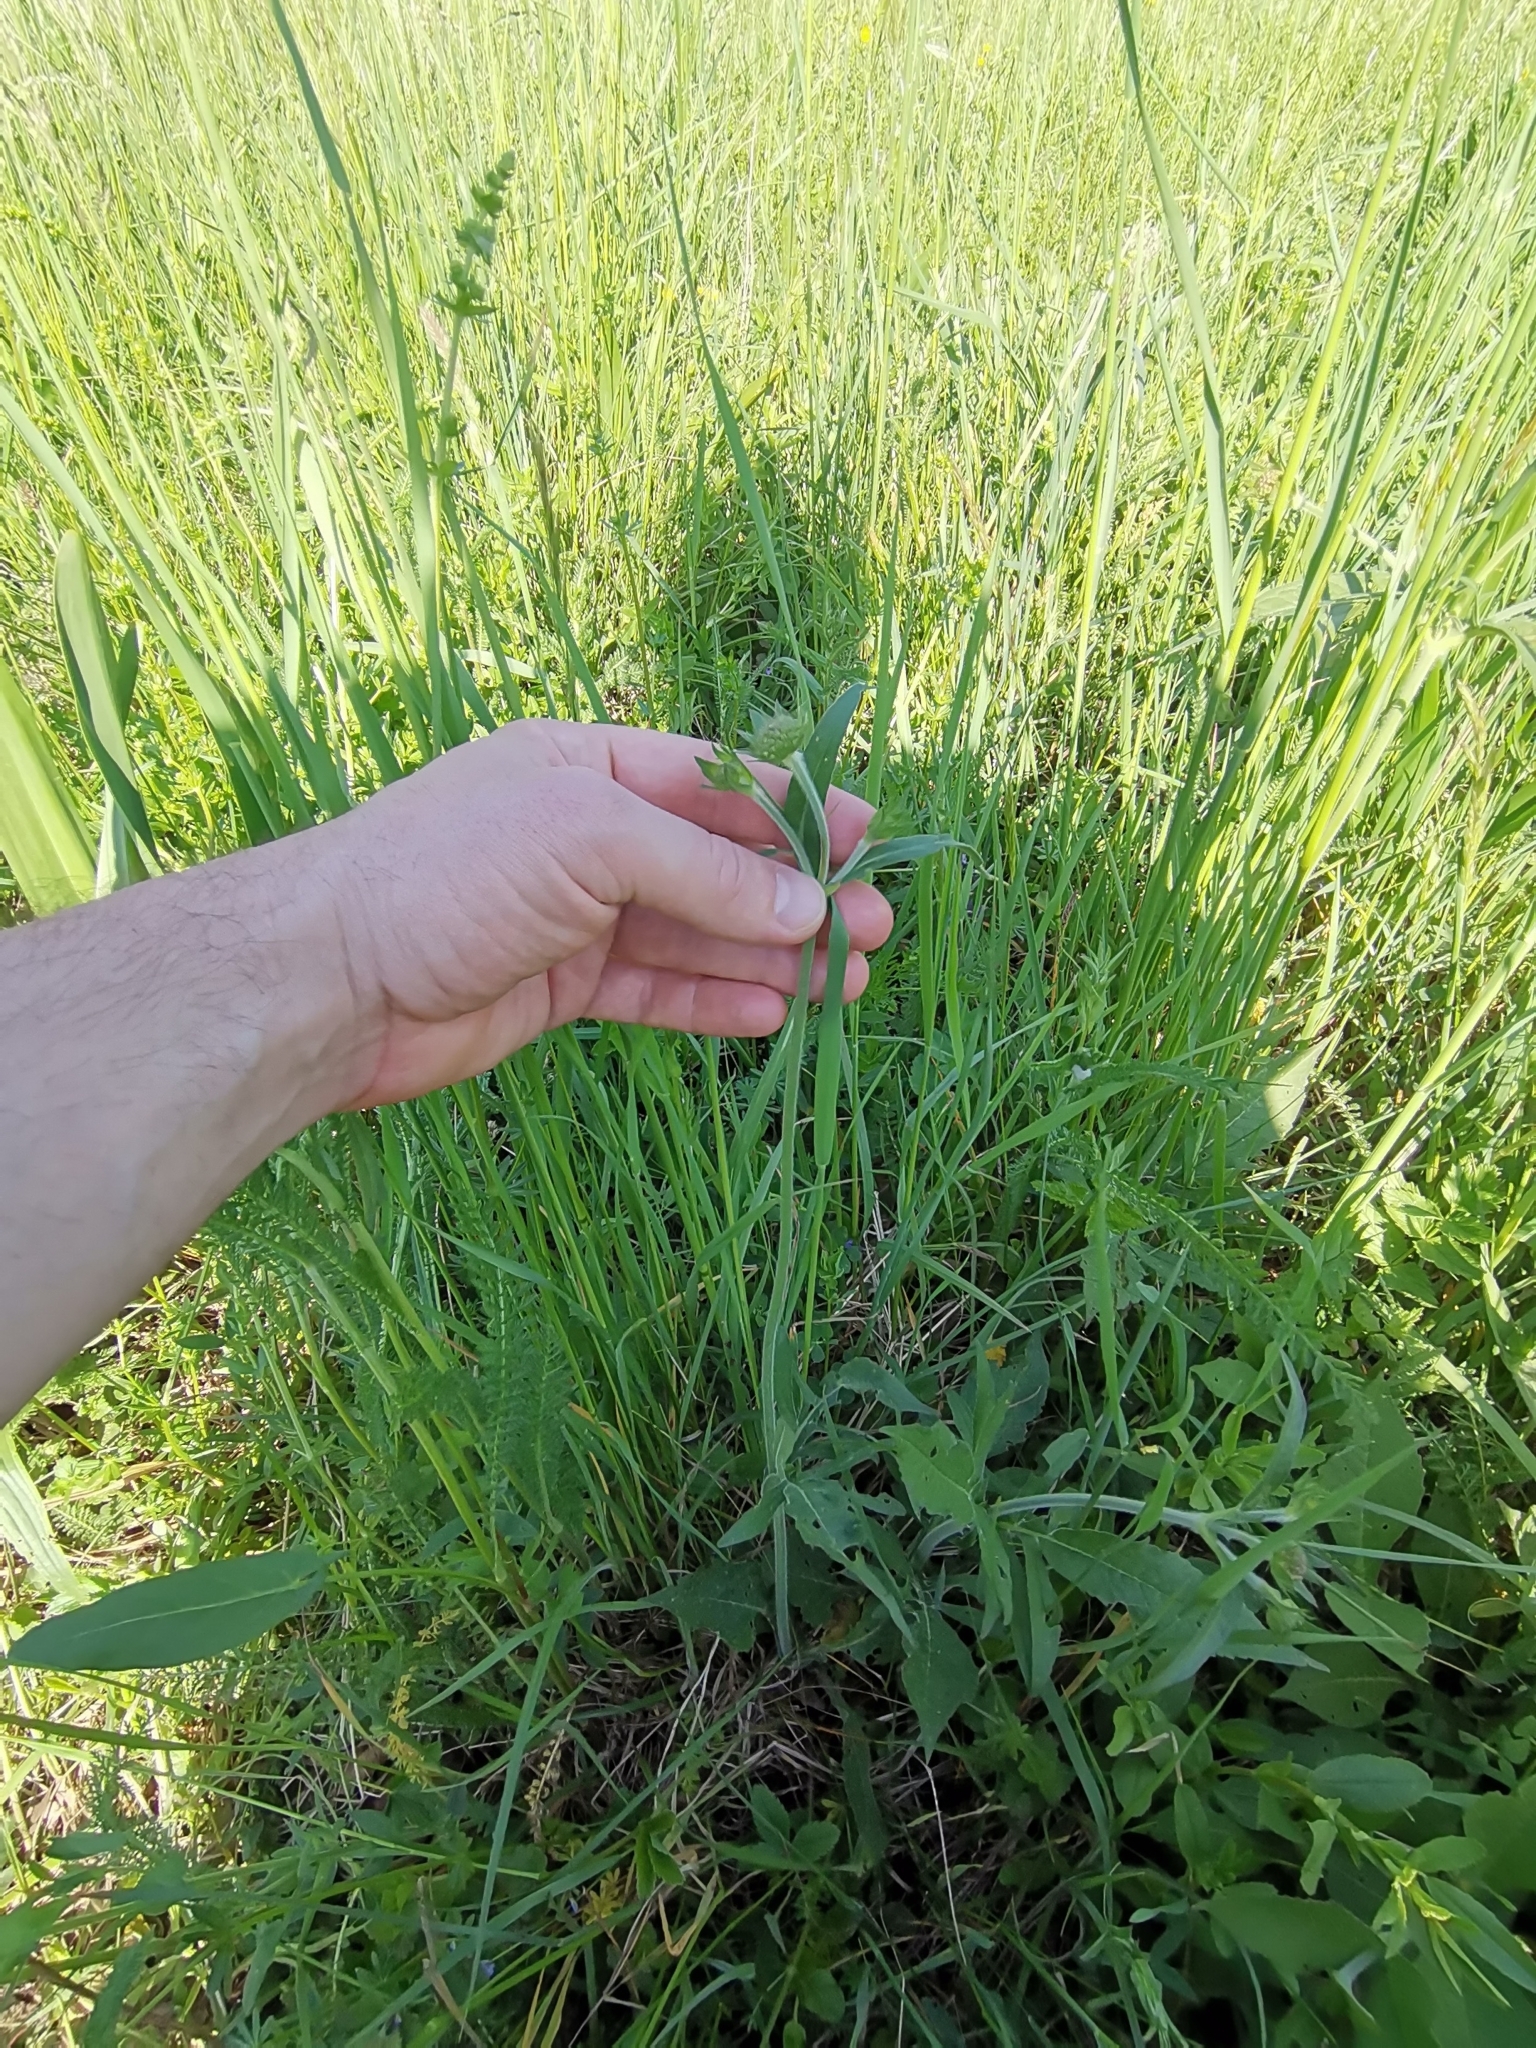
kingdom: Plantae
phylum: Tracheophyta
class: Magnoliopsida
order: Dipsacales
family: Caprifoliaceae
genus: Knautia
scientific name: Knautia arvensis
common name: Field scabiosa
